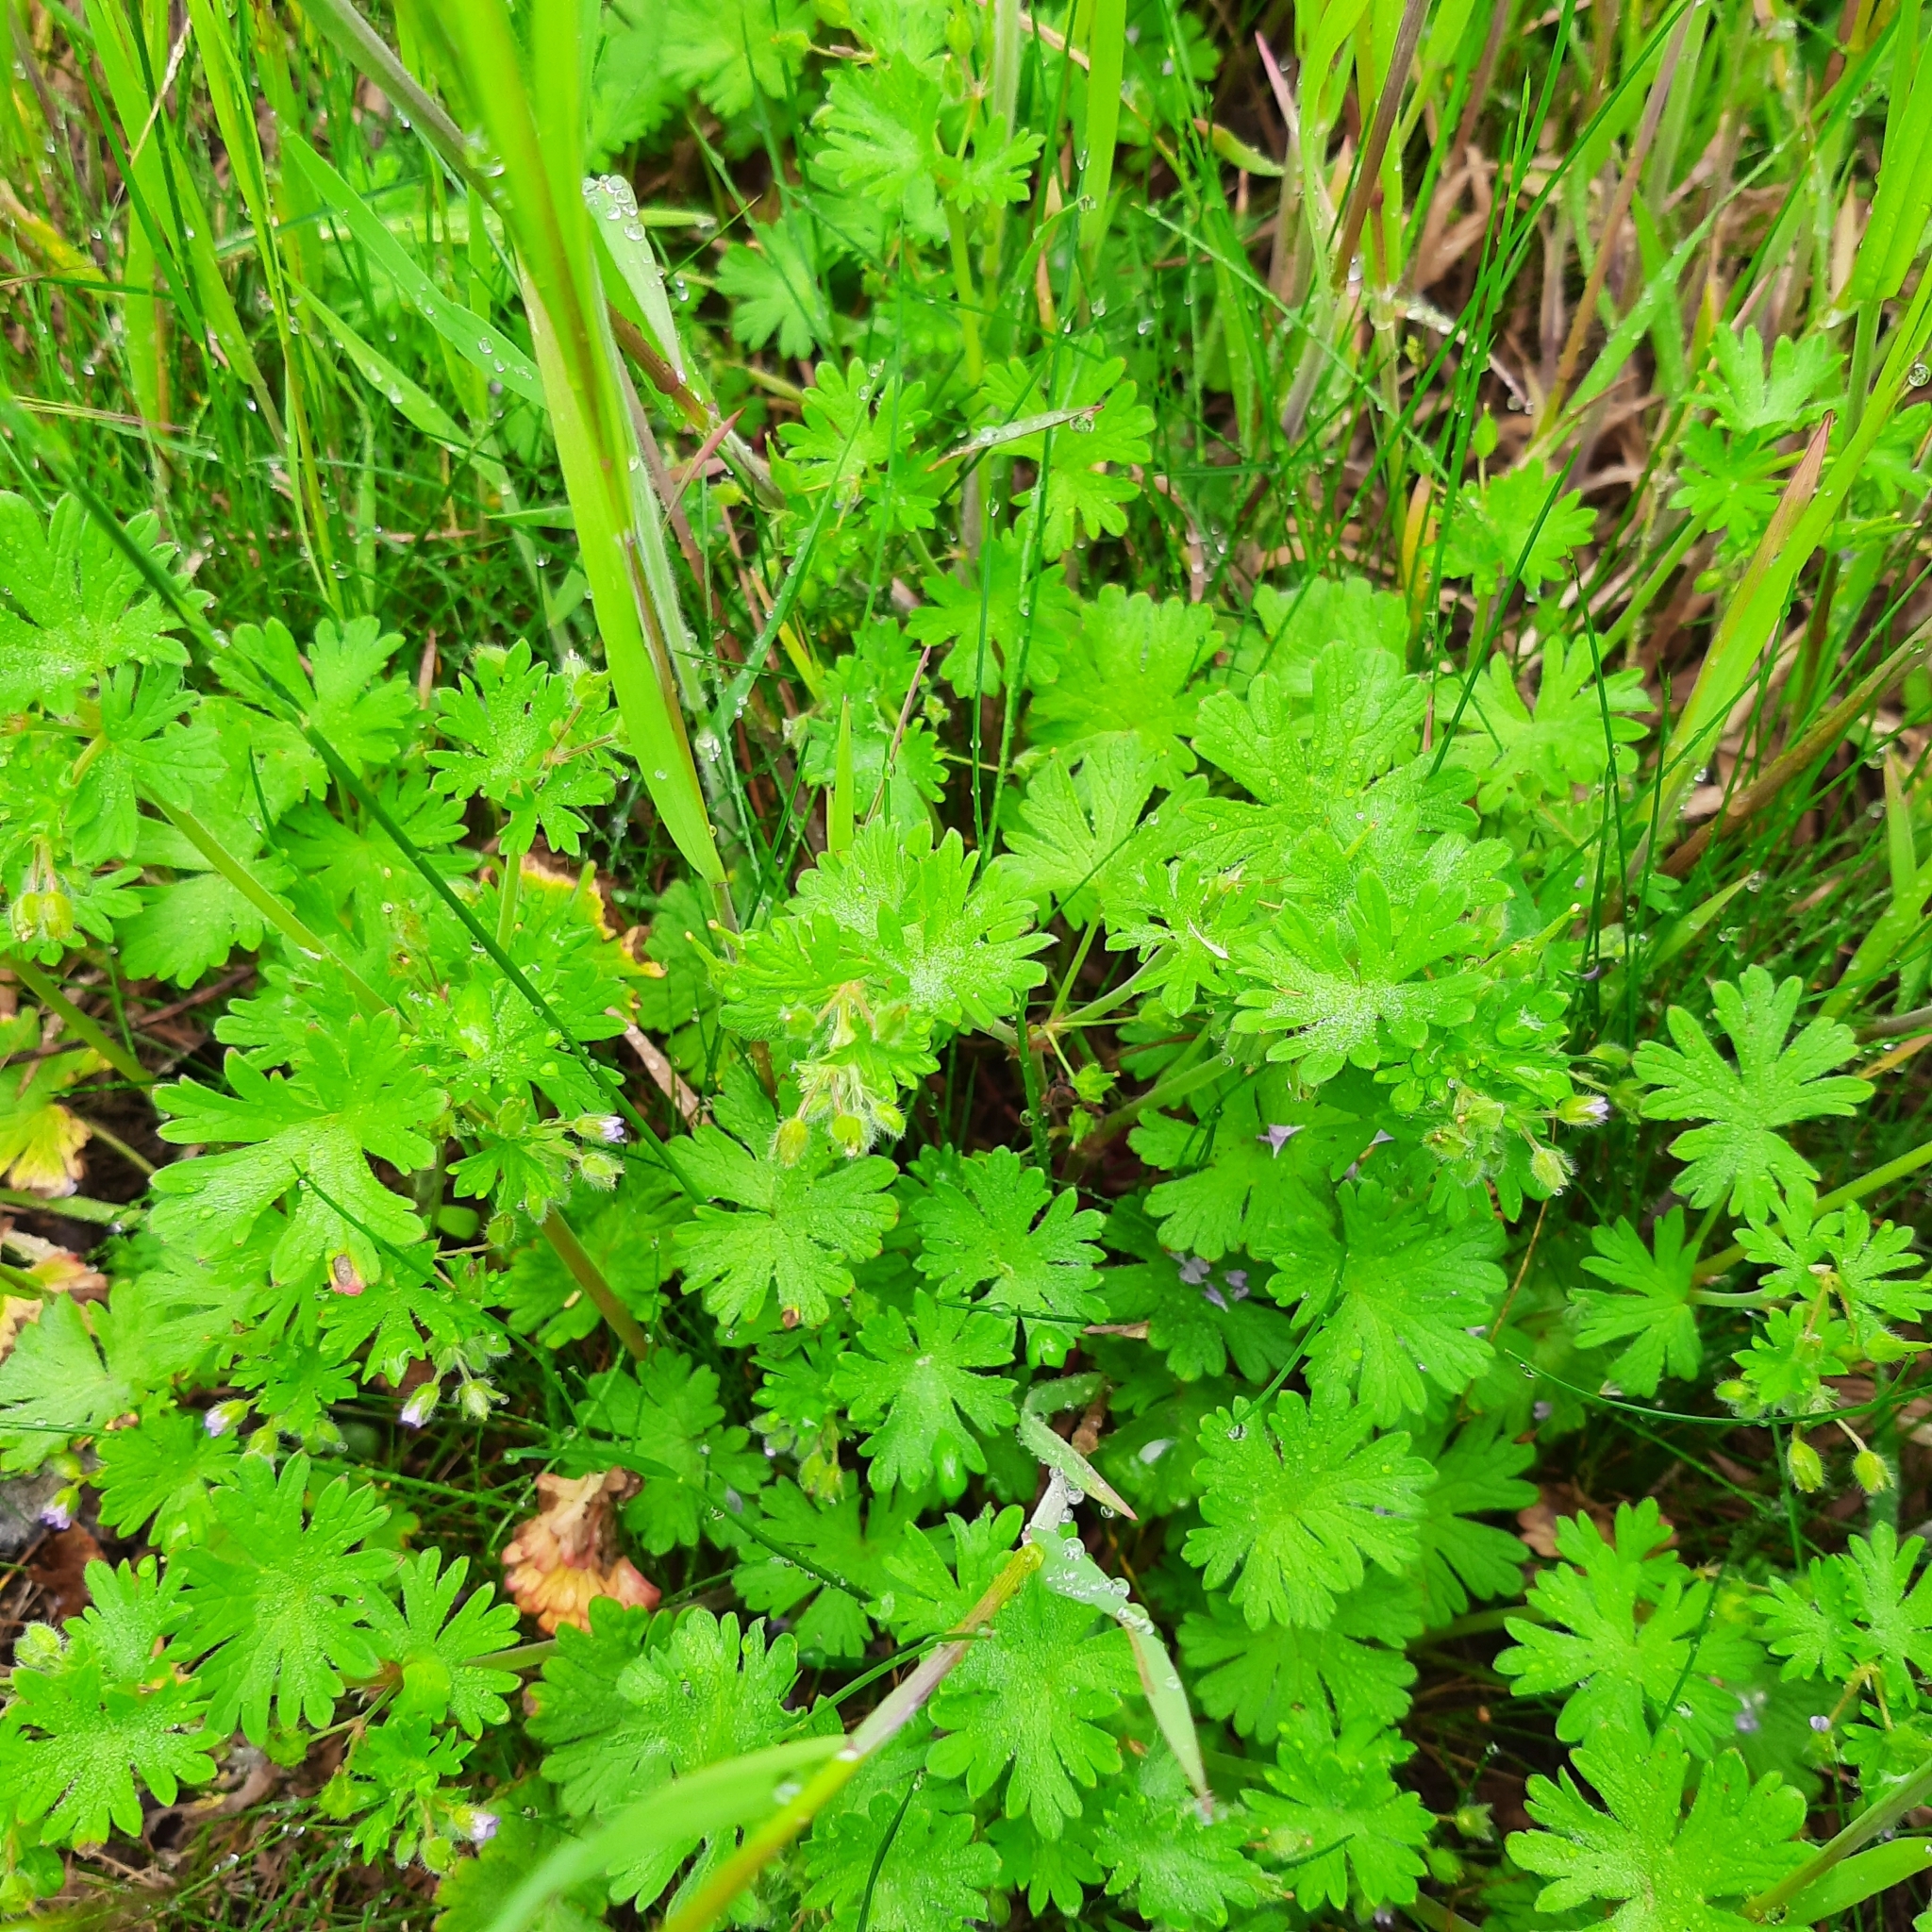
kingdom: Plantae
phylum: Tracheophyta
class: Magnoliopsida
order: Geraniales
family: Geraniaceae
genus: Geranium
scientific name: Geranium pusillum
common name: Small geranium
